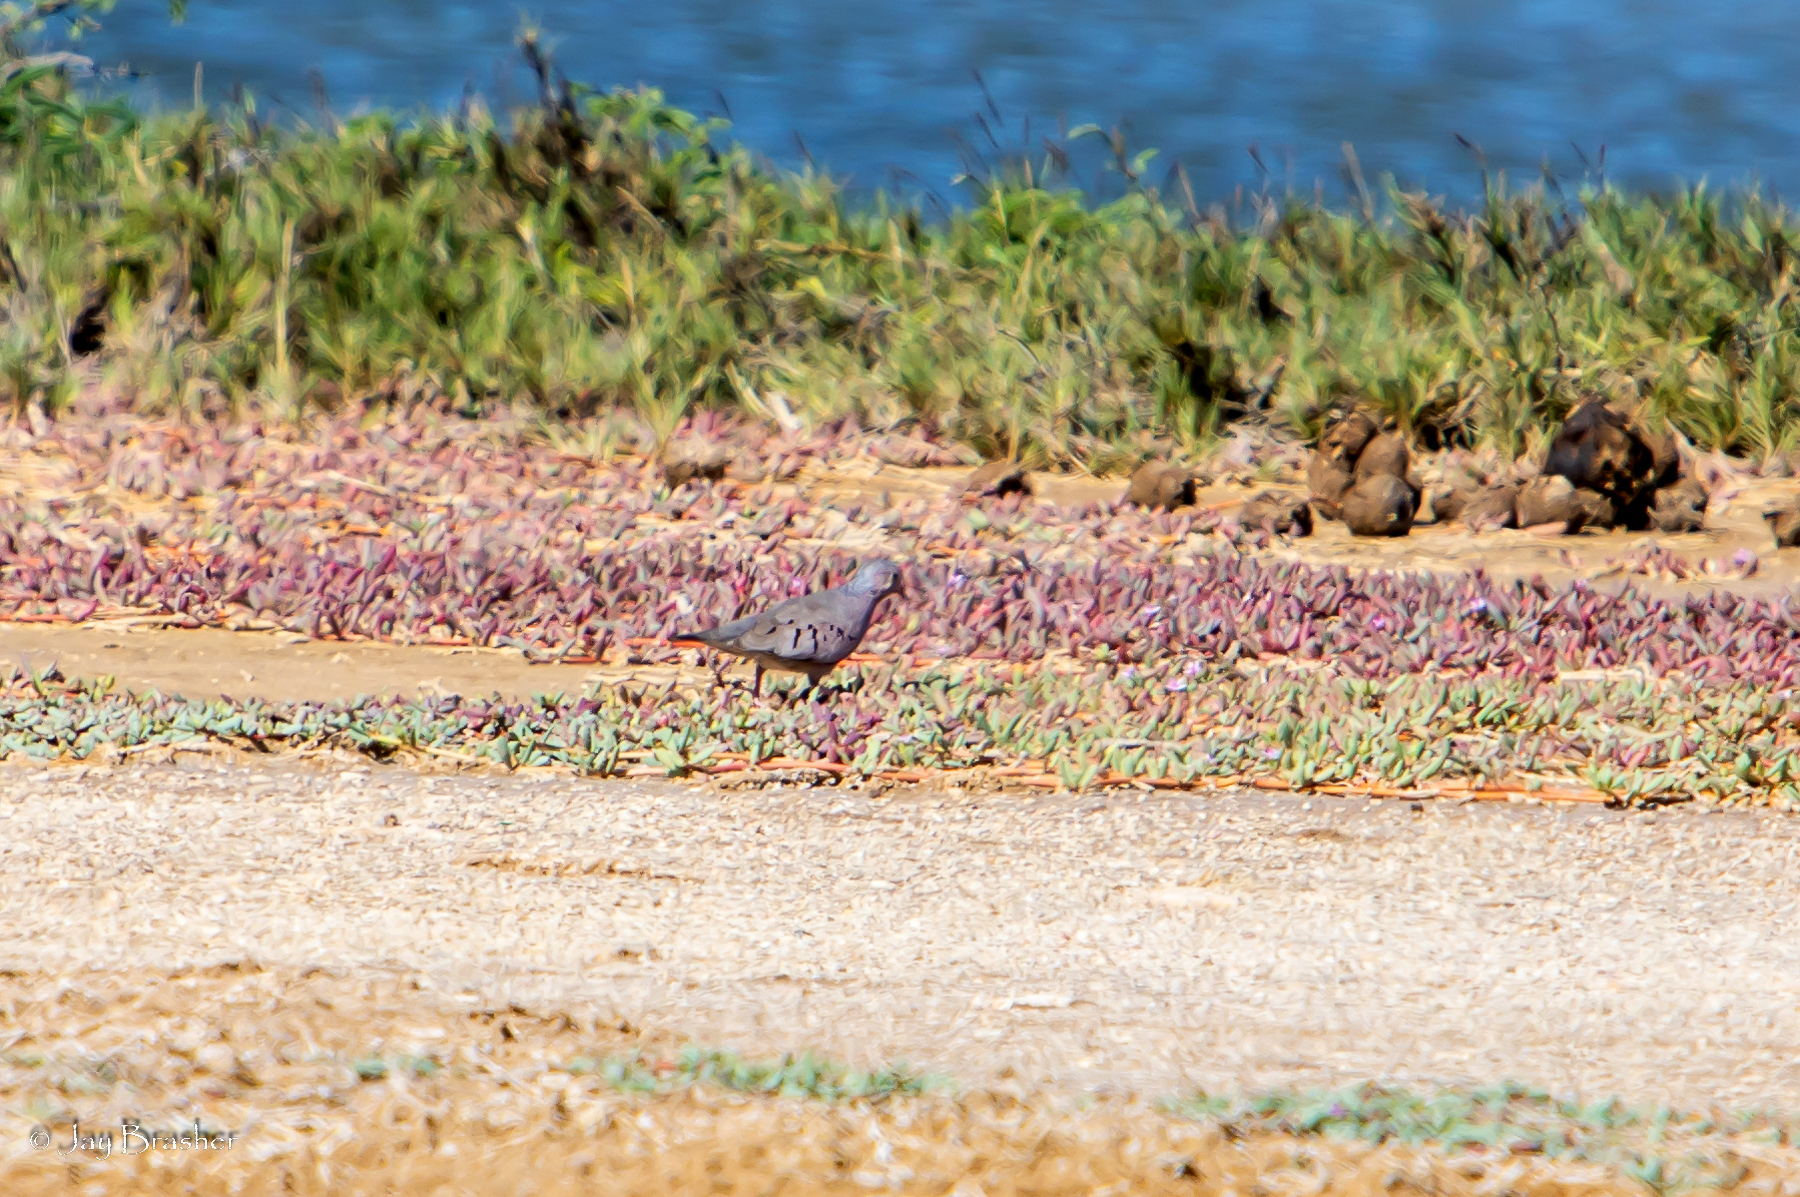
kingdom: Animalia
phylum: Chordata
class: Aves
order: Columbiformes
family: Columbidae
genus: Columbina
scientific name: Columbina passerina
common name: Common ground-dove
